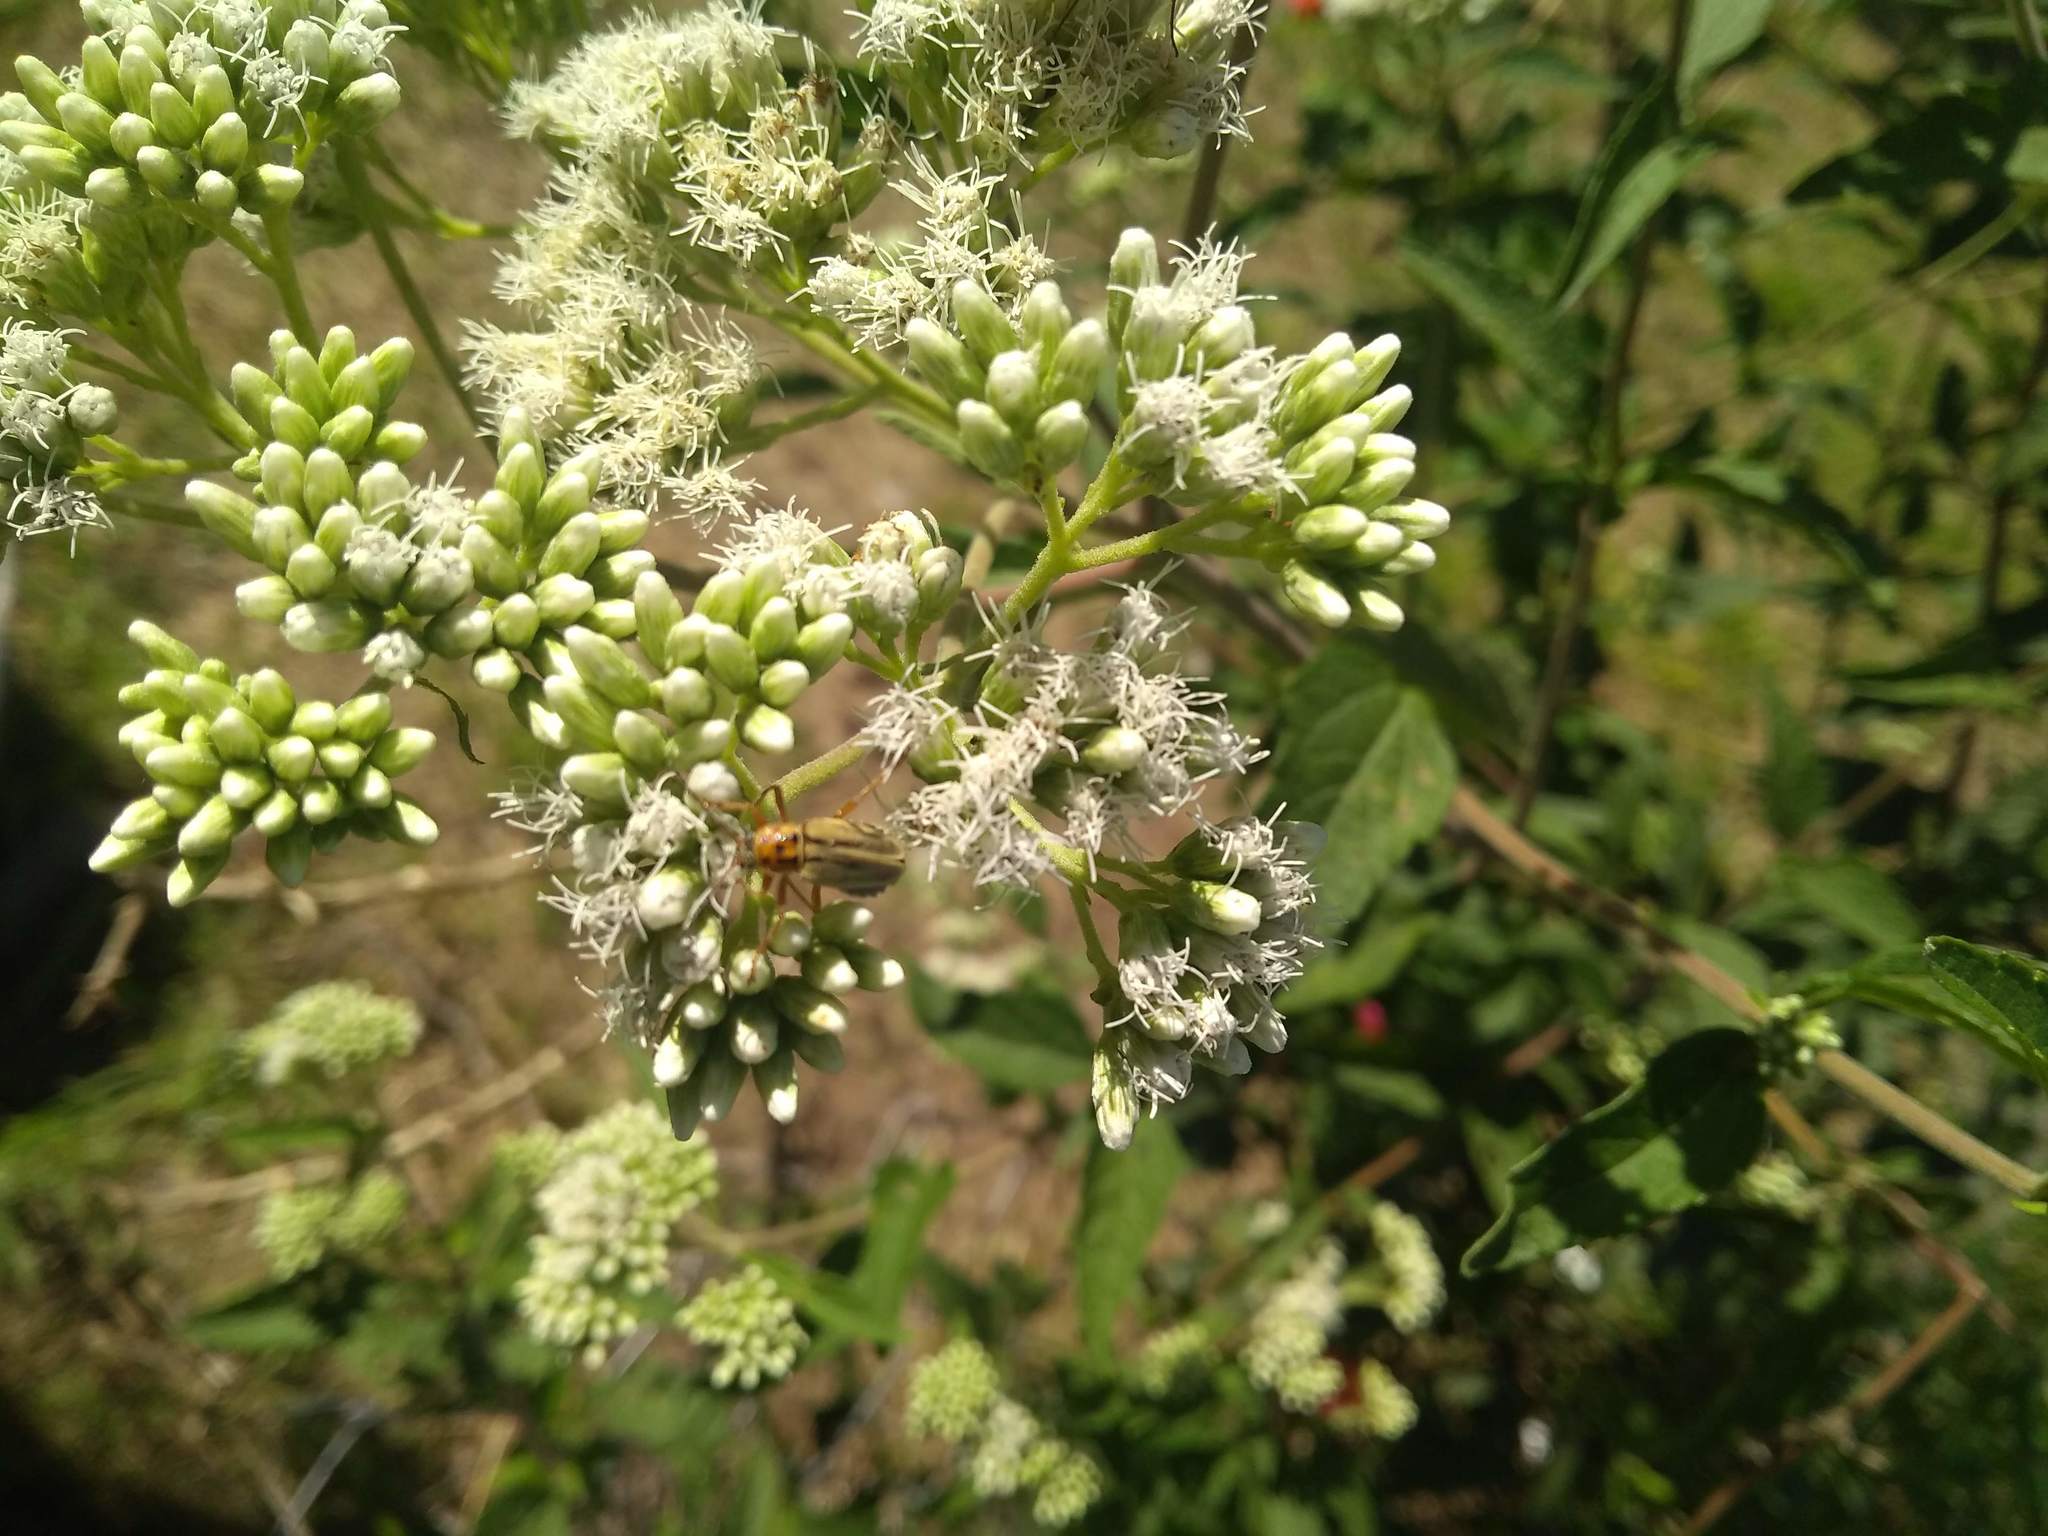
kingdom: Animalia
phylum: Arthropoda
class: Insecta
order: Coleoptera
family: Cantharidae
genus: Chauliognathus
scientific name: Chauliognathus
